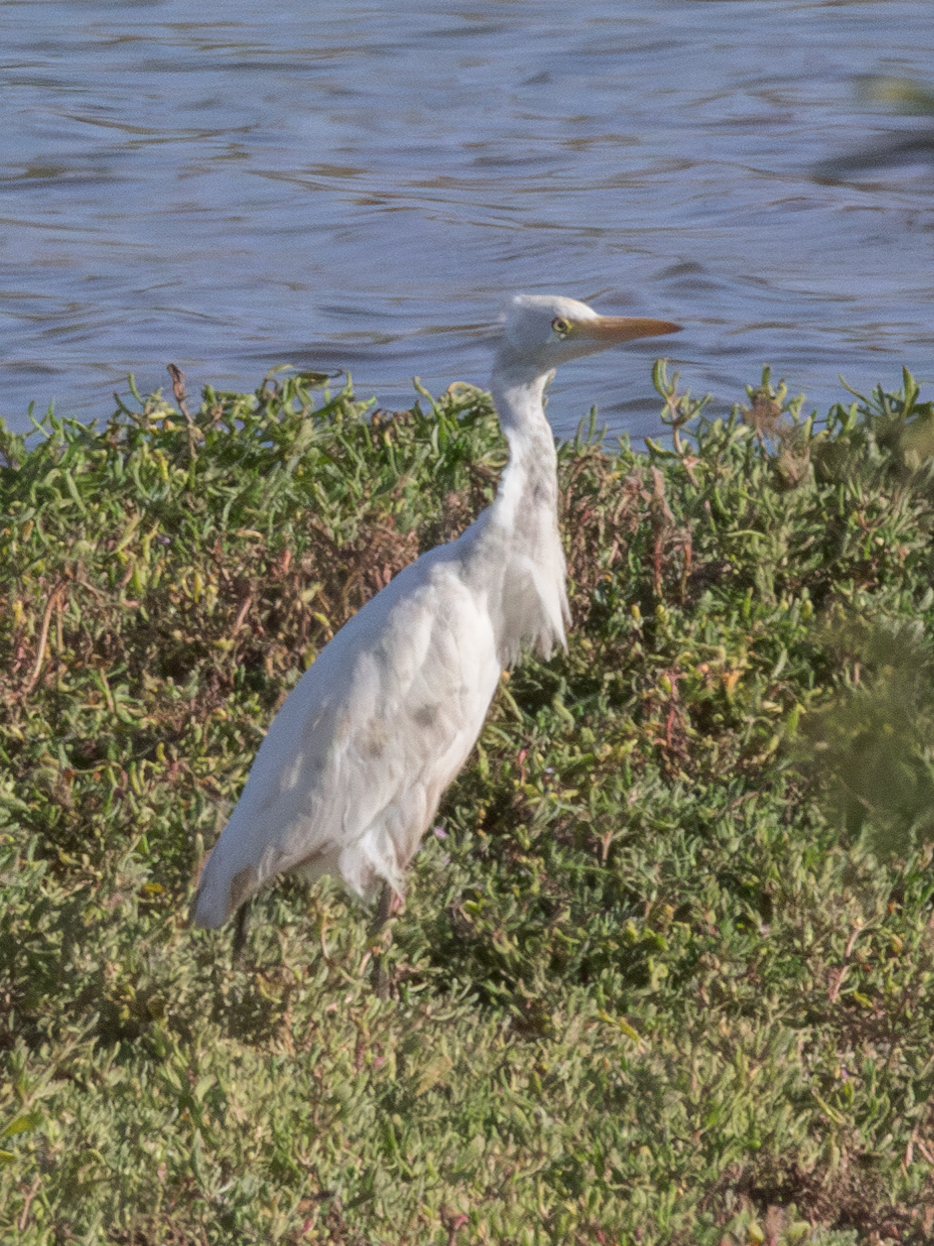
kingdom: Animalia
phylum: Chordata
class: Aves
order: Pelecaniformes
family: Ardeidae
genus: Bubulcus
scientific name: Bubulcus ibis
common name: Cattle egret
